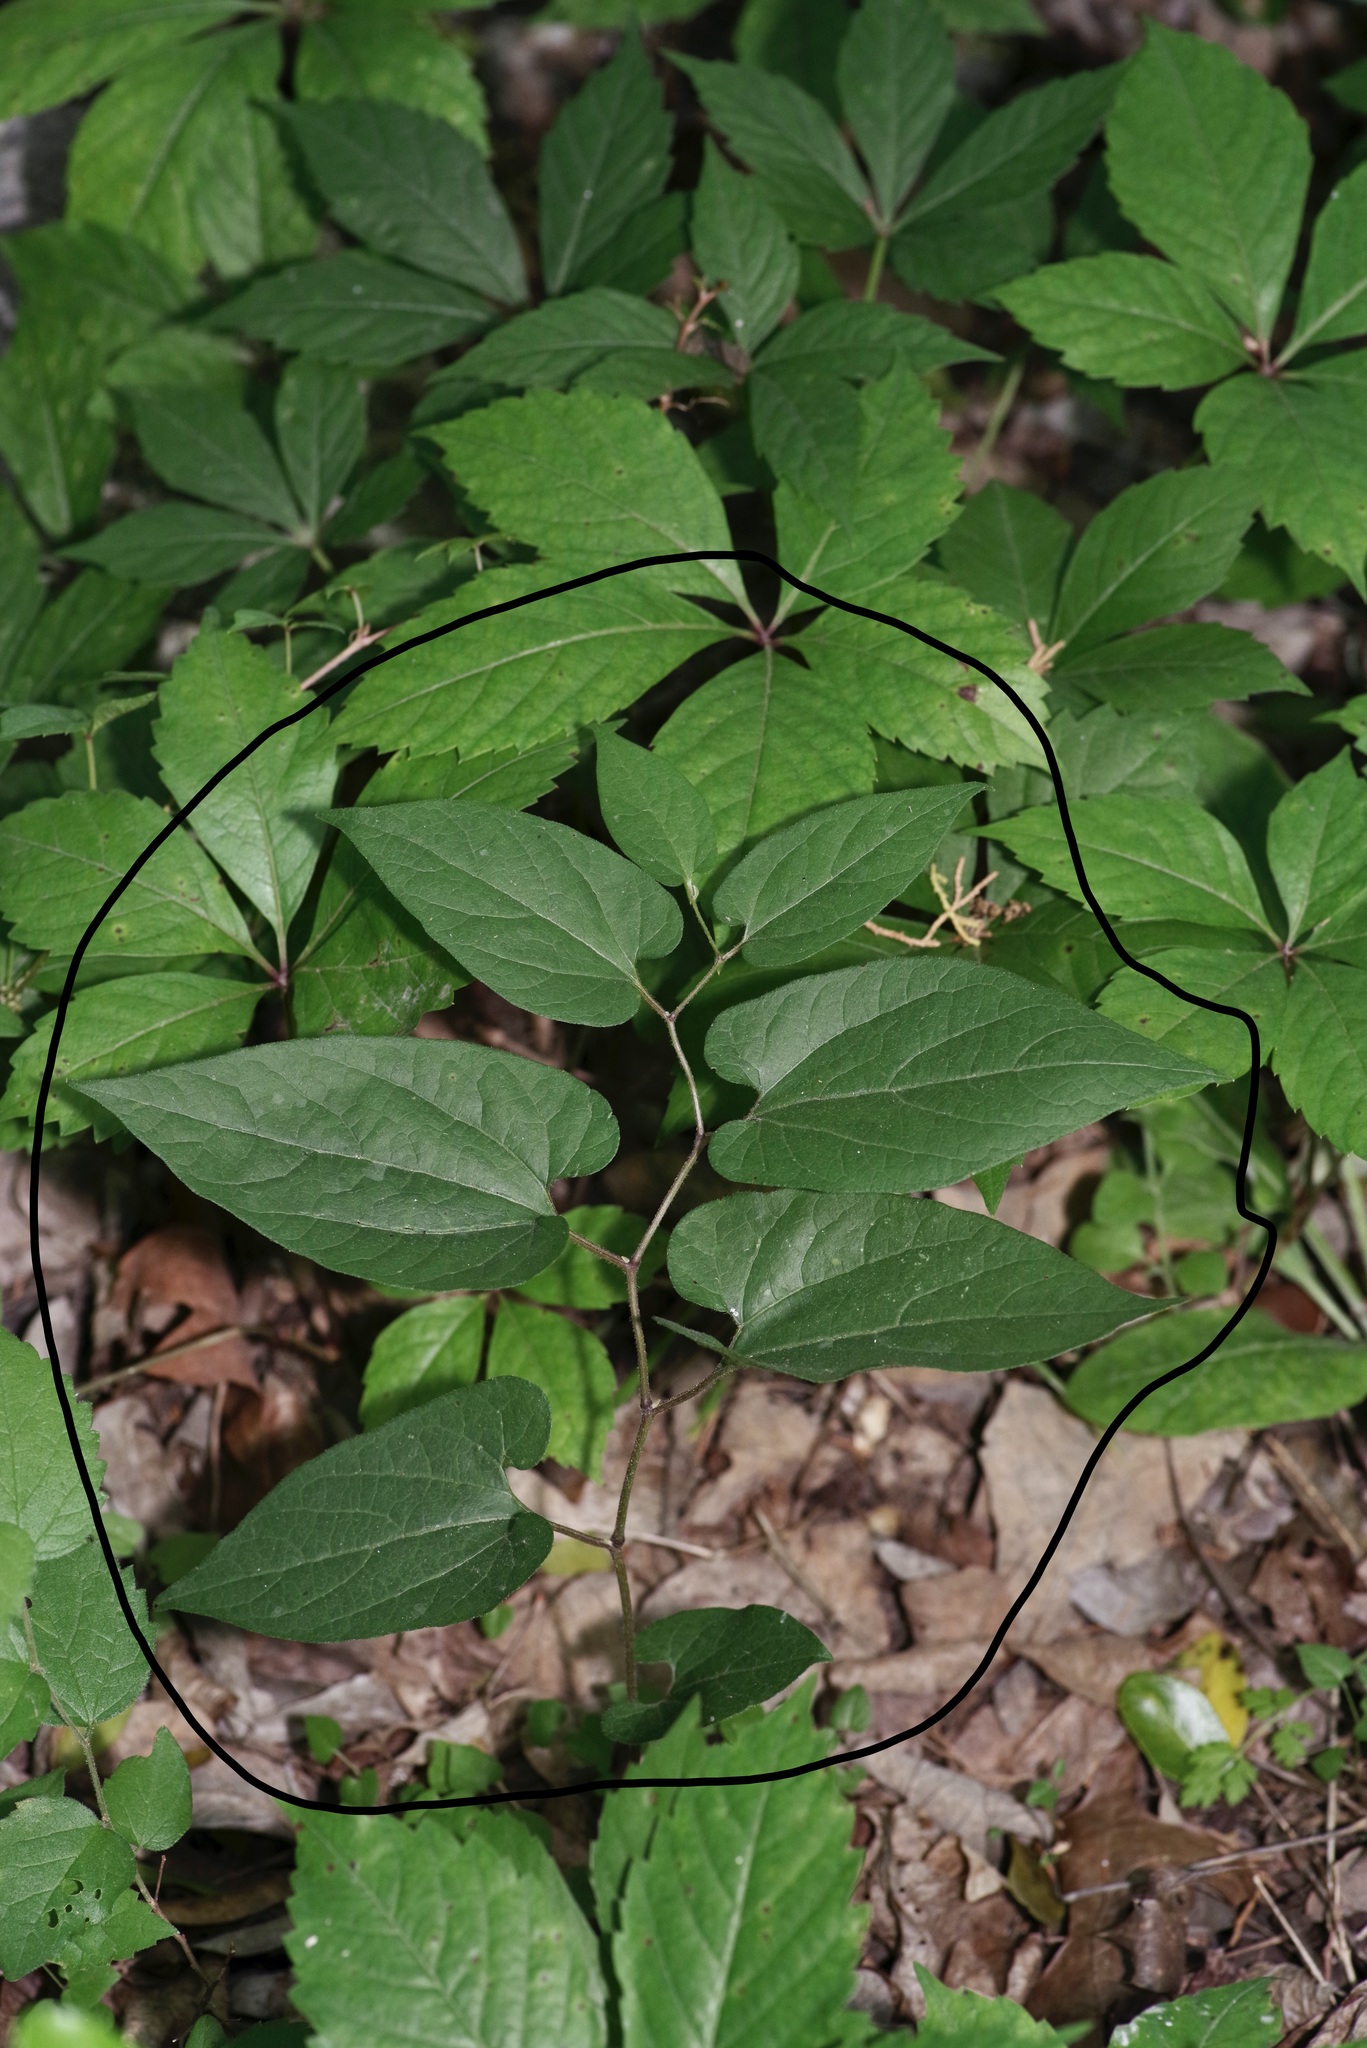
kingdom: Plantae
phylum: Tracheophyta
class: Magnoliopsida
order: Piperales
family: Aristolochiaceae
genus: Endodeca
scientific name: Endodeca serpentaria
